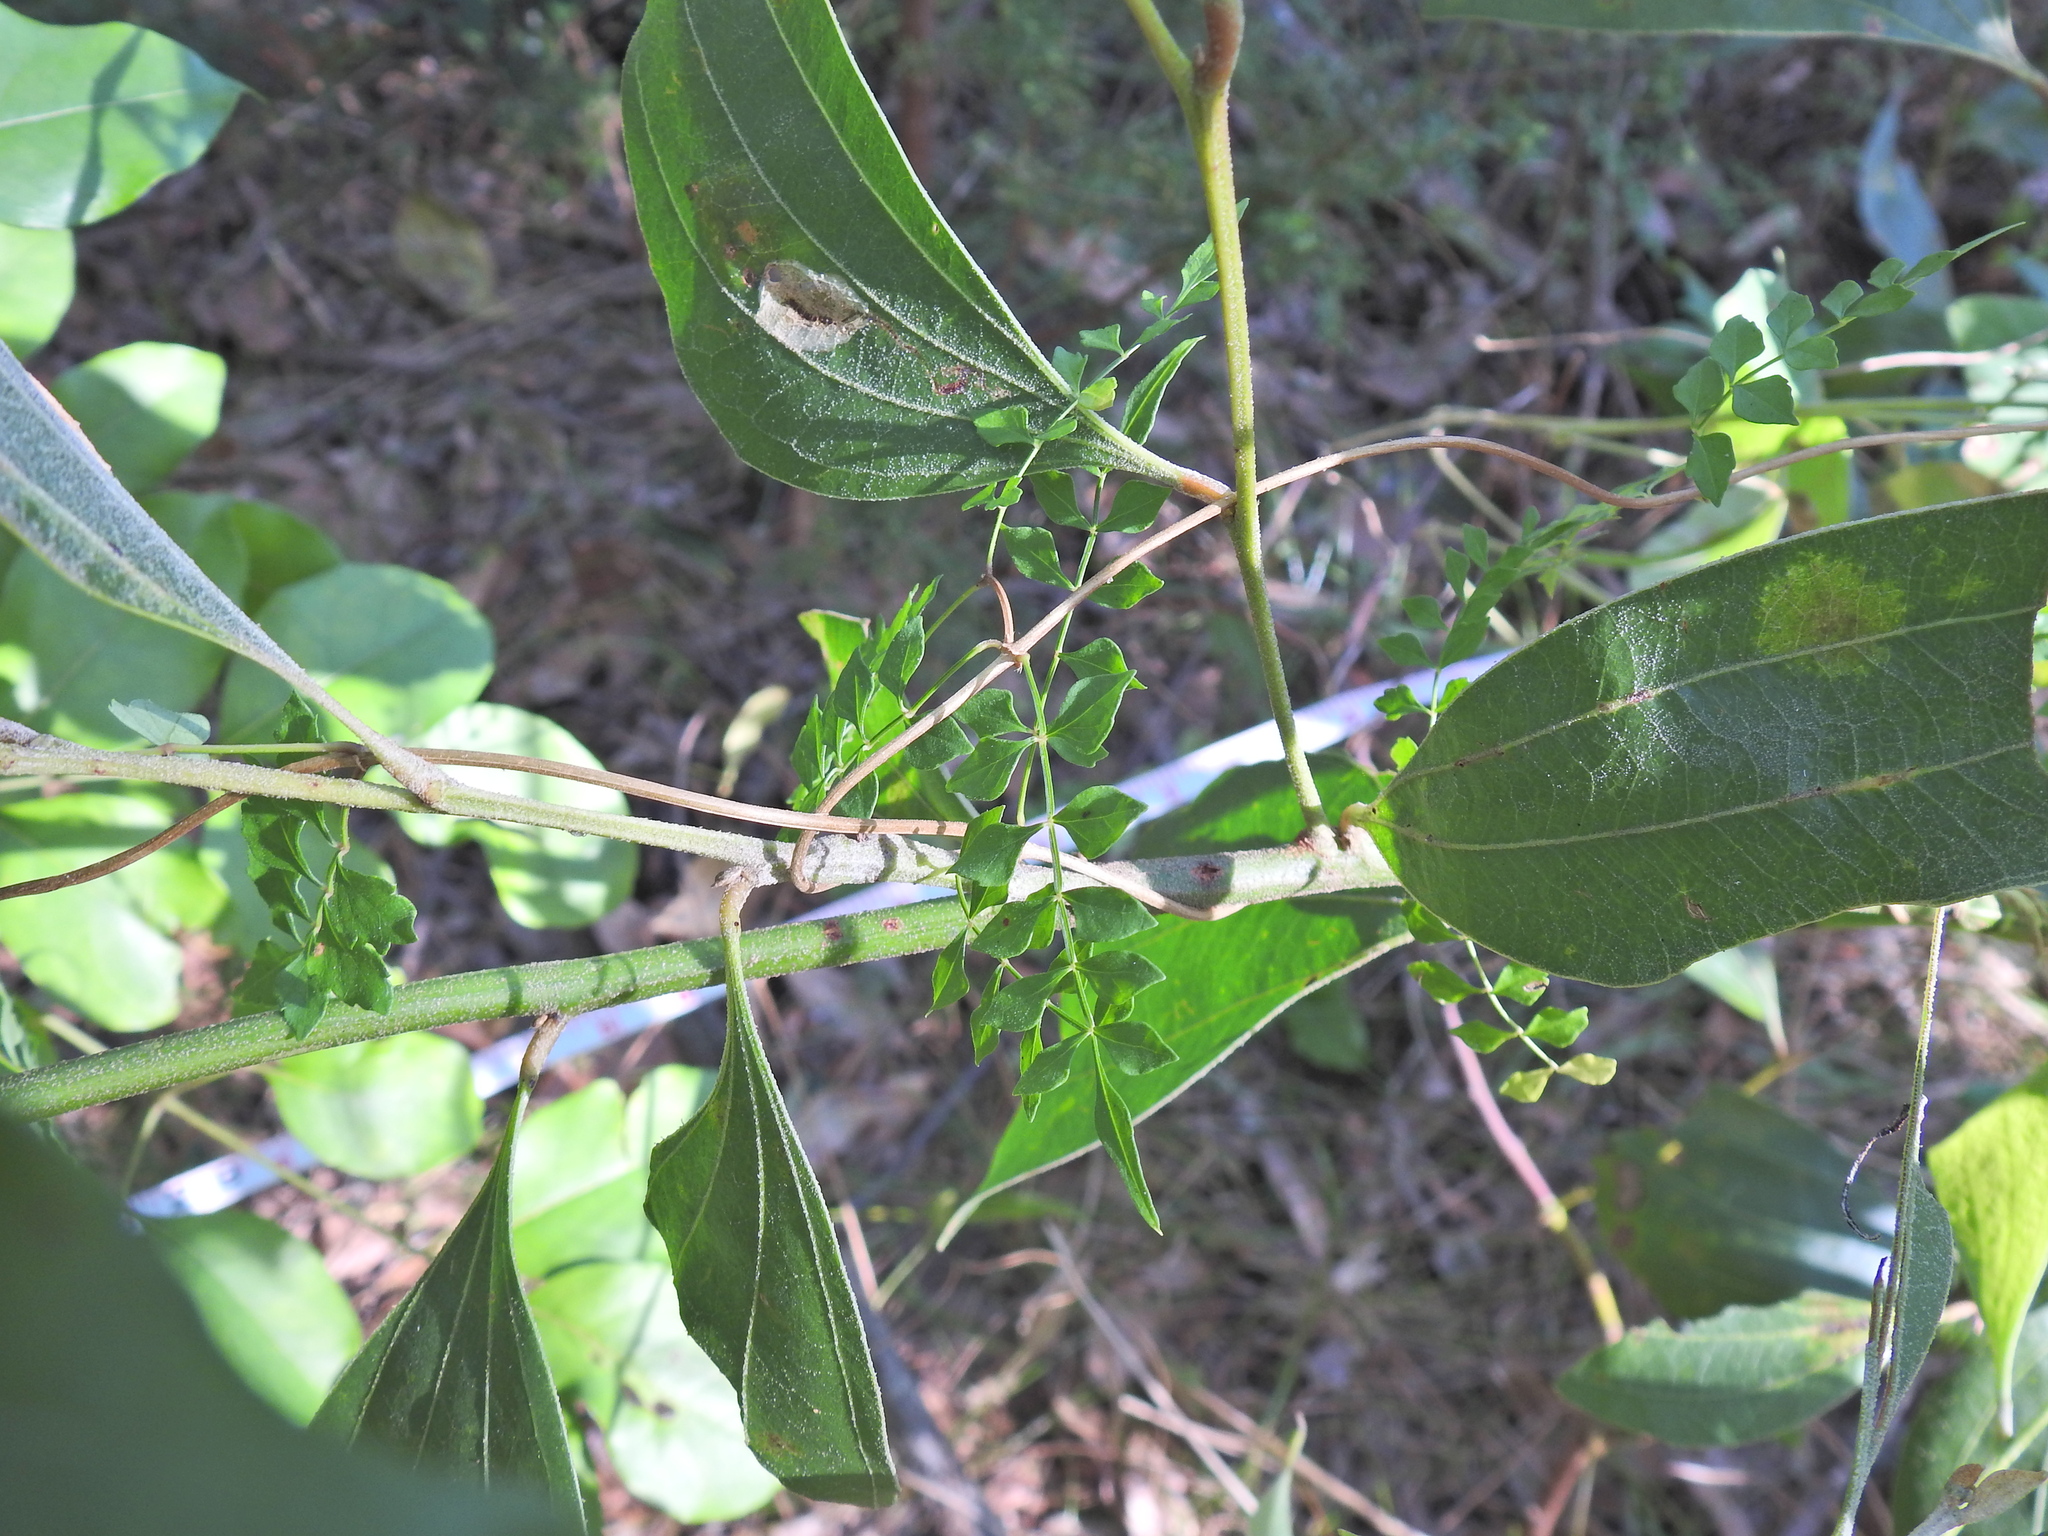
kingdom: Plantae
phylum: Tracheophyta
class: Magnoliopsida
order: Lamiales
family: Bignoniaceae
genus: Pandorea
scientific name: Pandorea pandorana
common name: Wonga-wonga-vine
